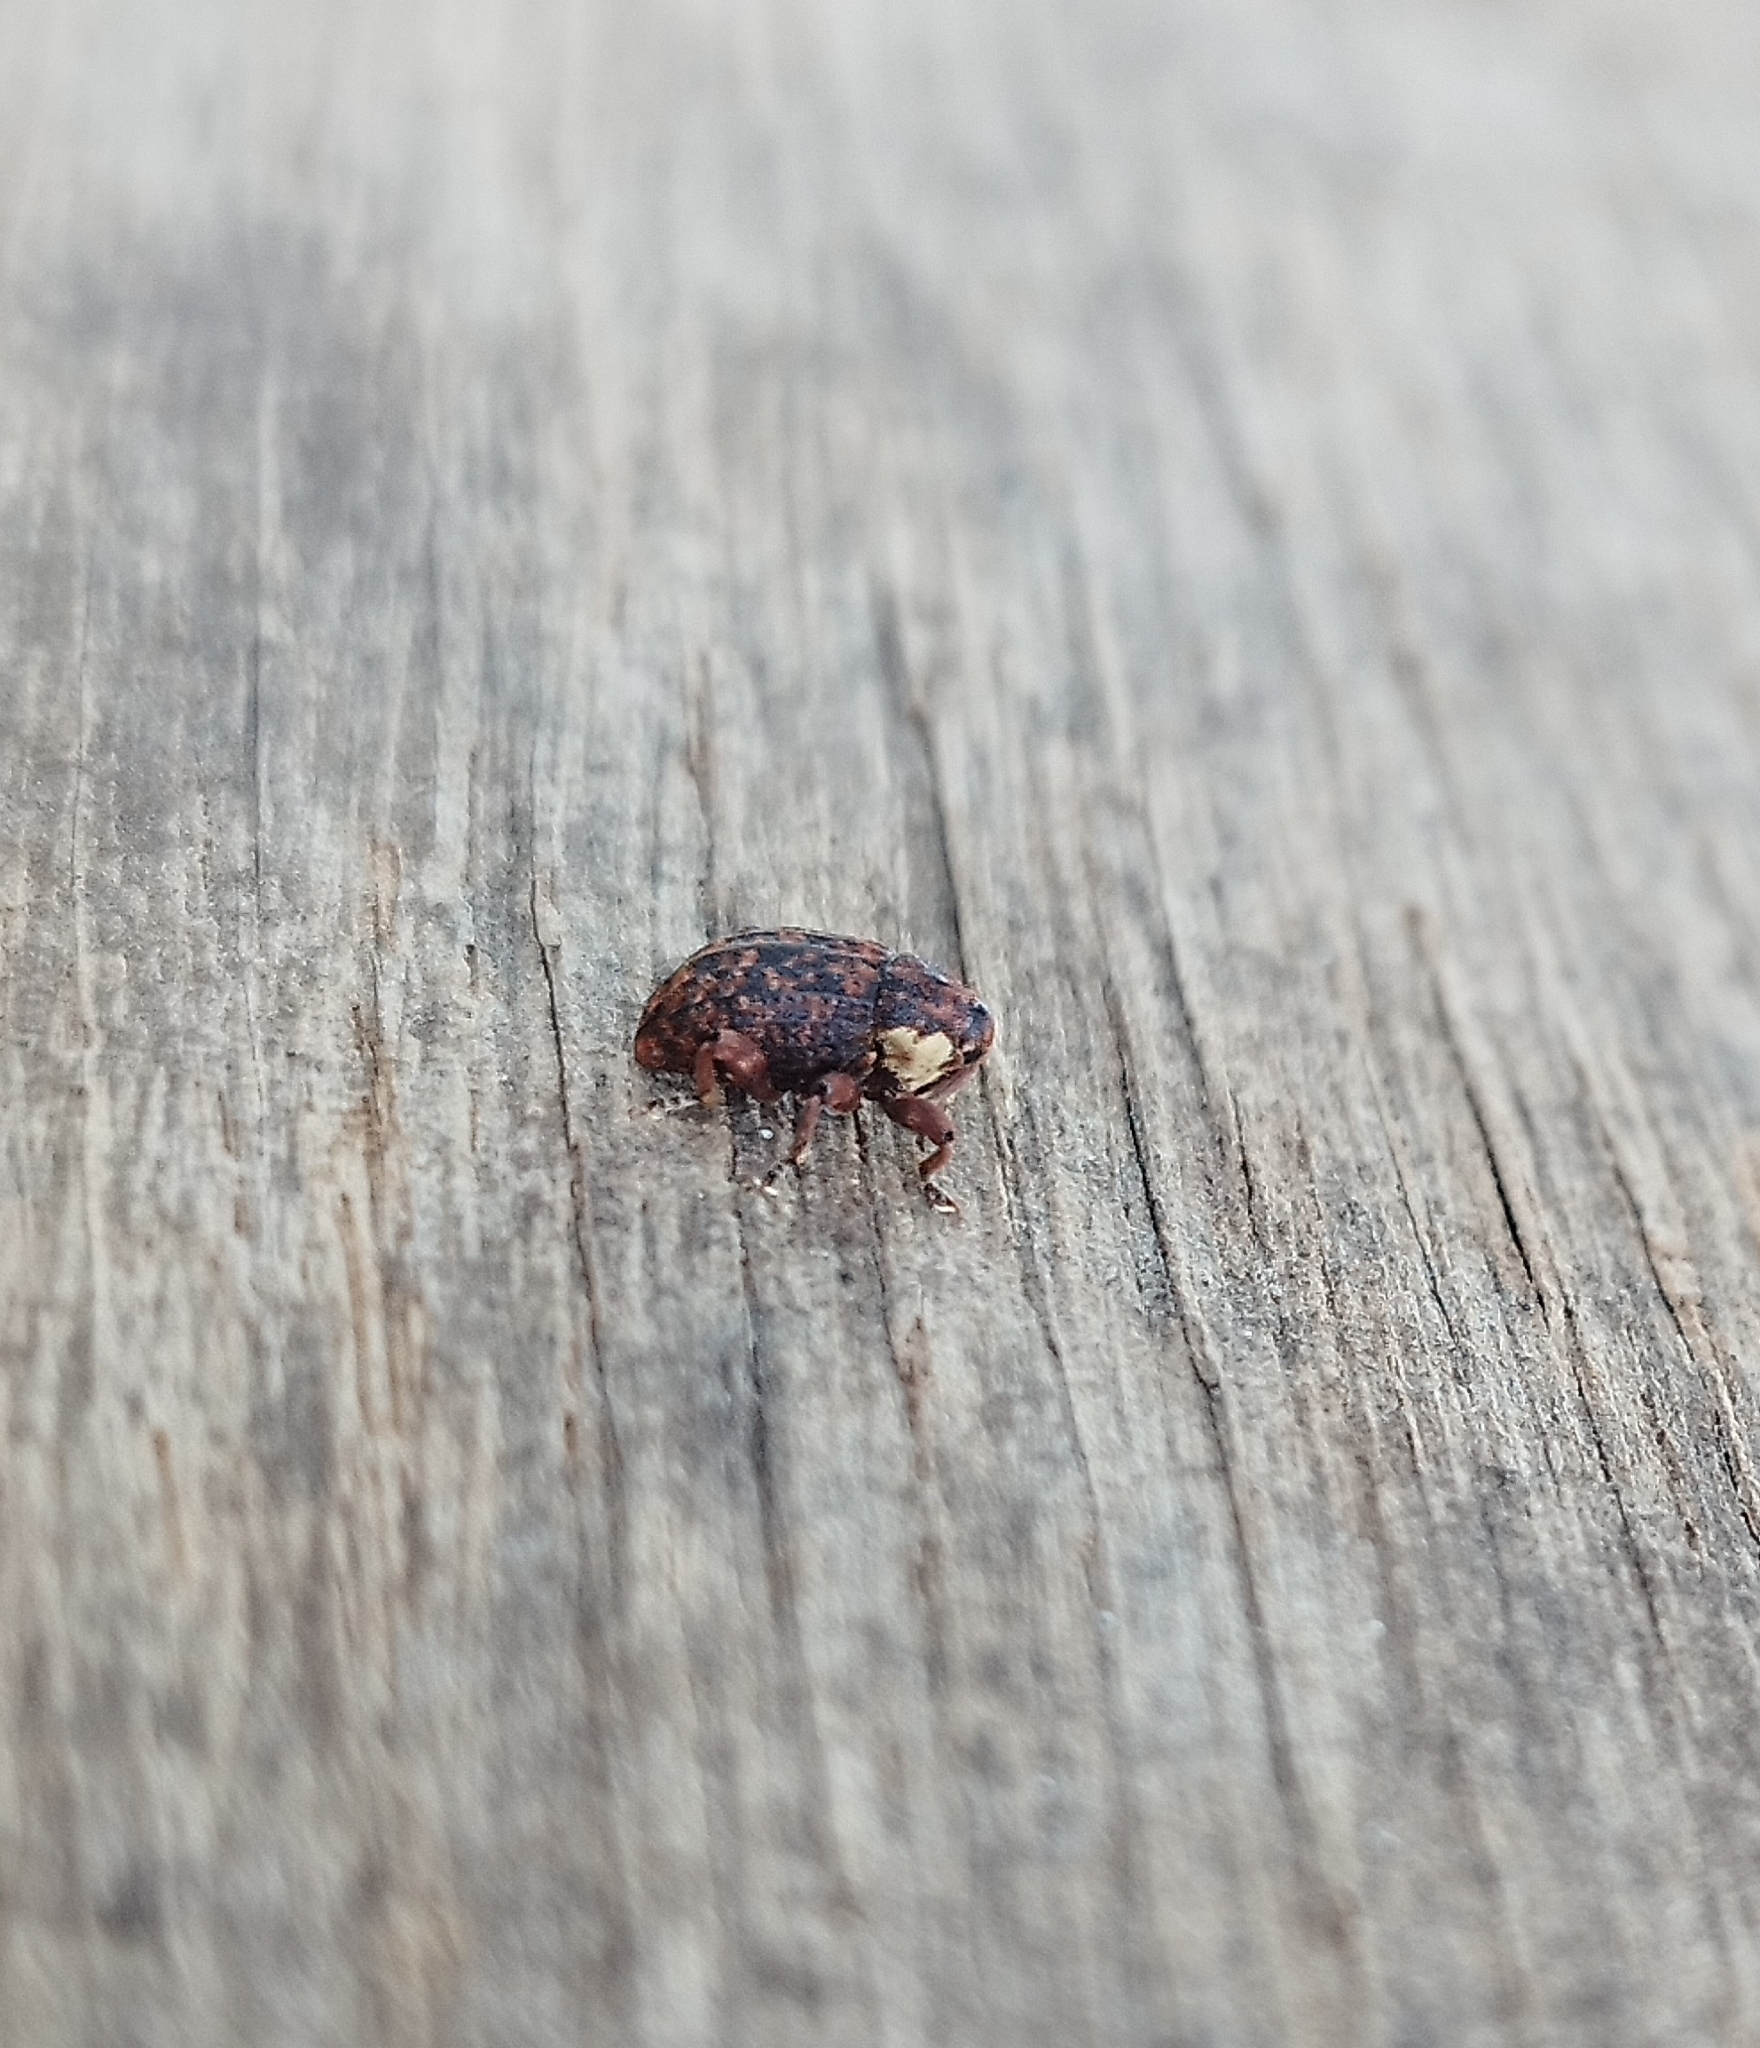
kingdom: Animalia
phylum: Arthropoda
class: Insecta
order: Coleoptera
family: Curculionidae
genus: Eubulus
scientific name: Eubulus miniatus
